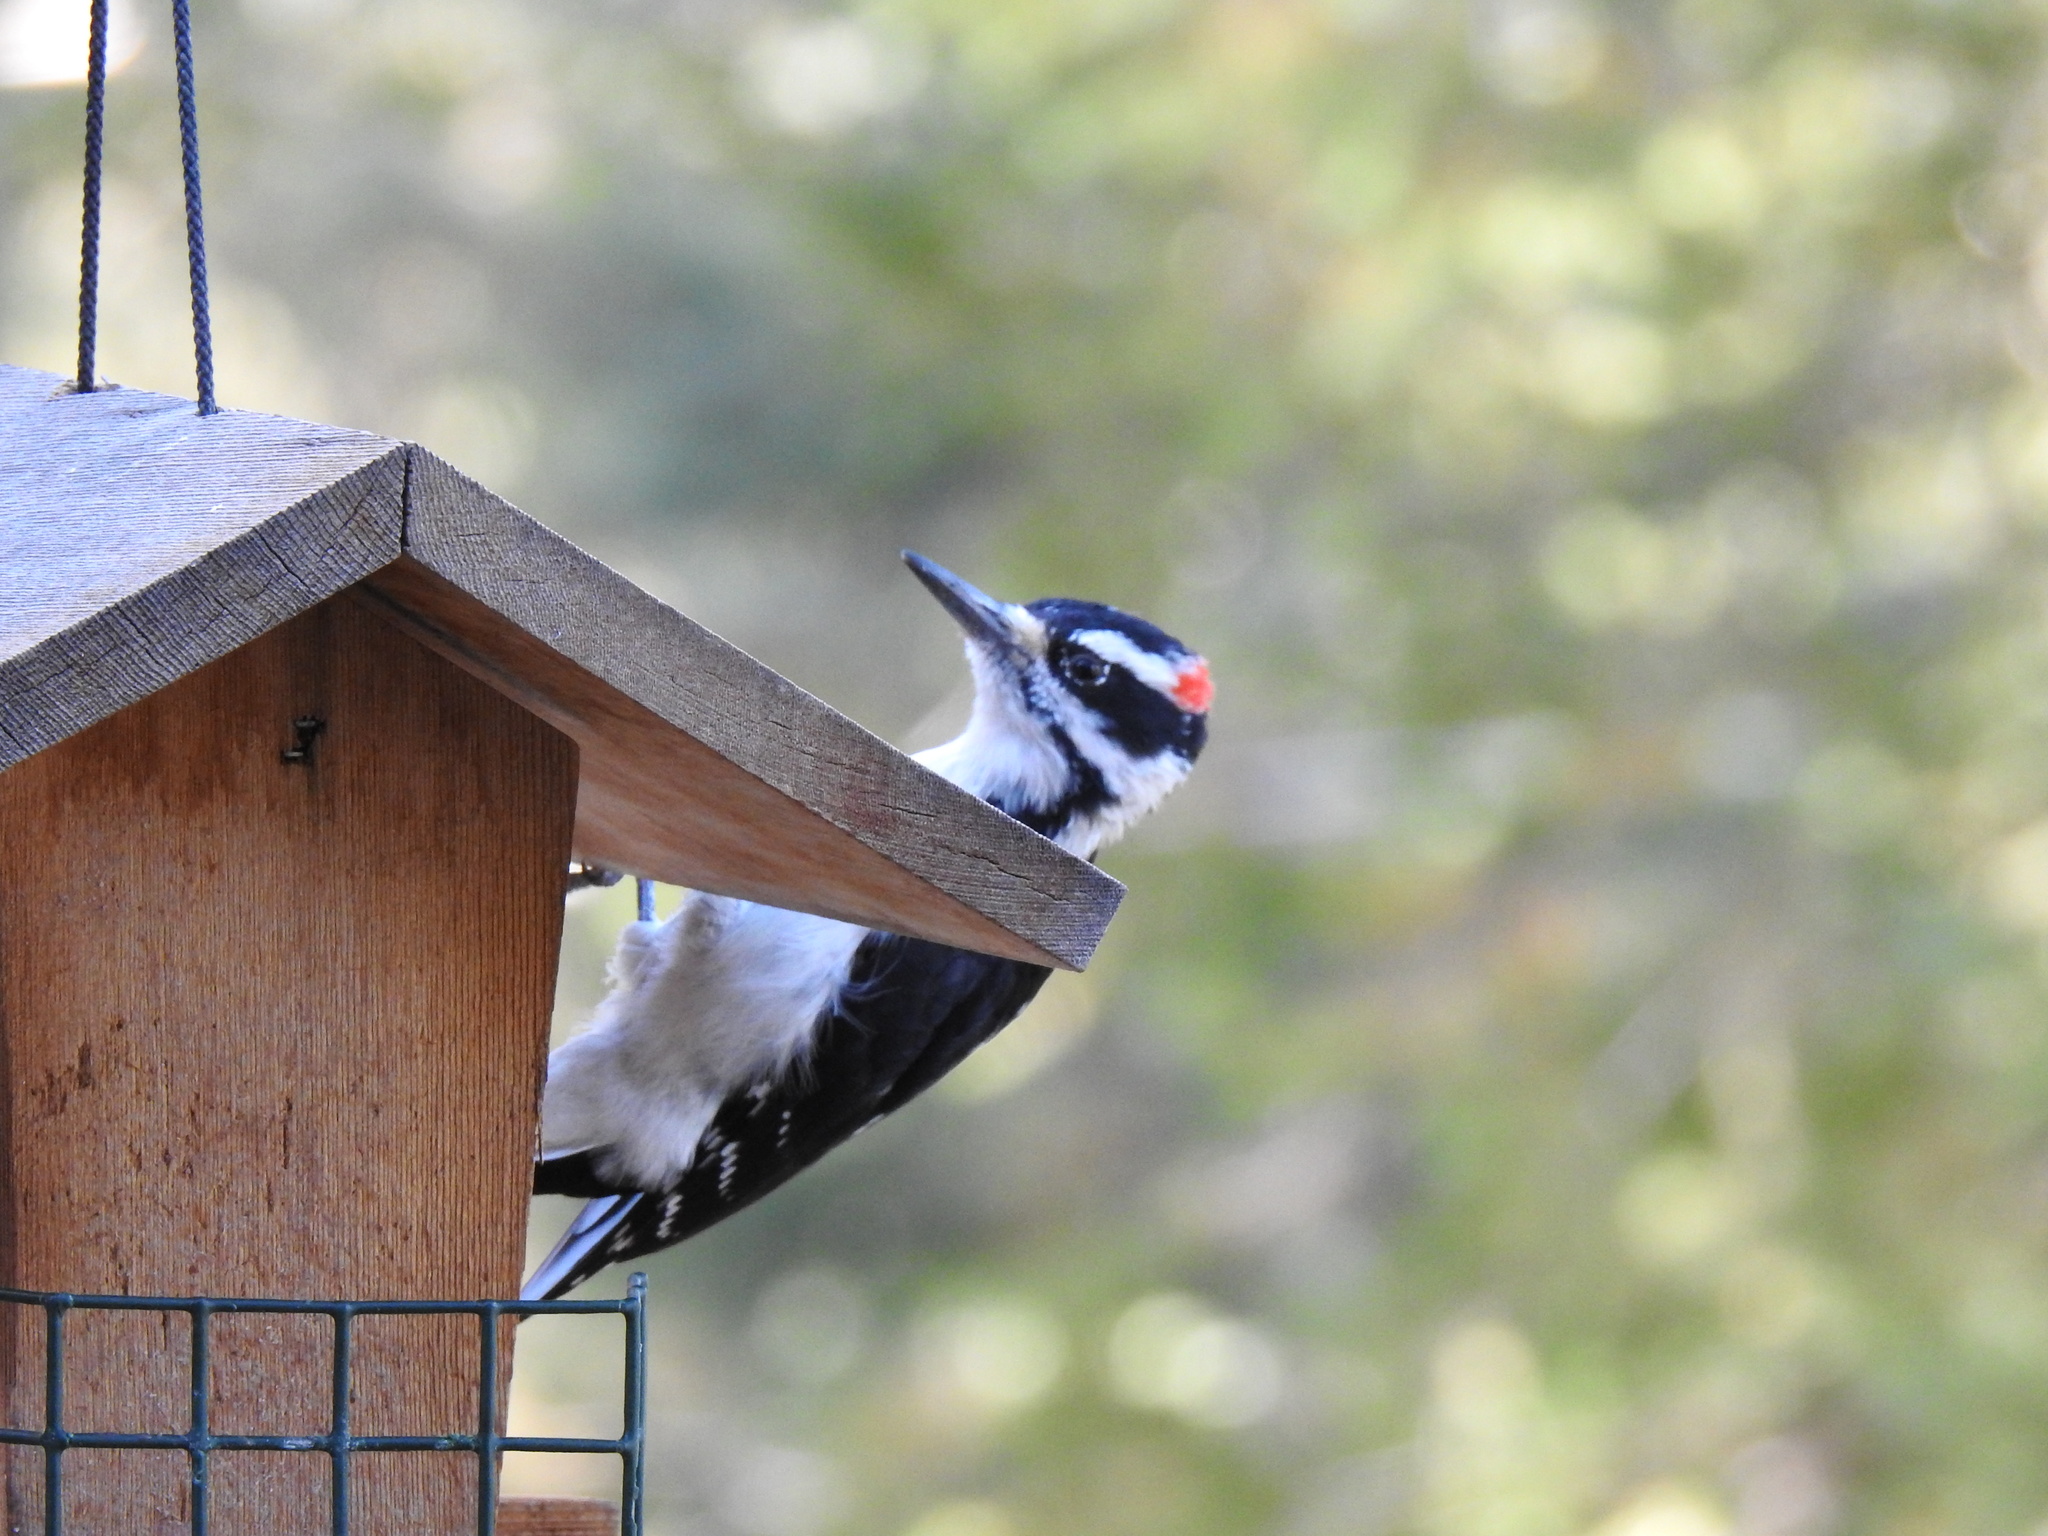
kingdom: Animalia
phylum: Chordata
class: Aves
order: Piciformes
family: Picidae
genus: Leuconotopicus
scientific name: Leuconotopicus villosus
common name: Hairy woodpecker
